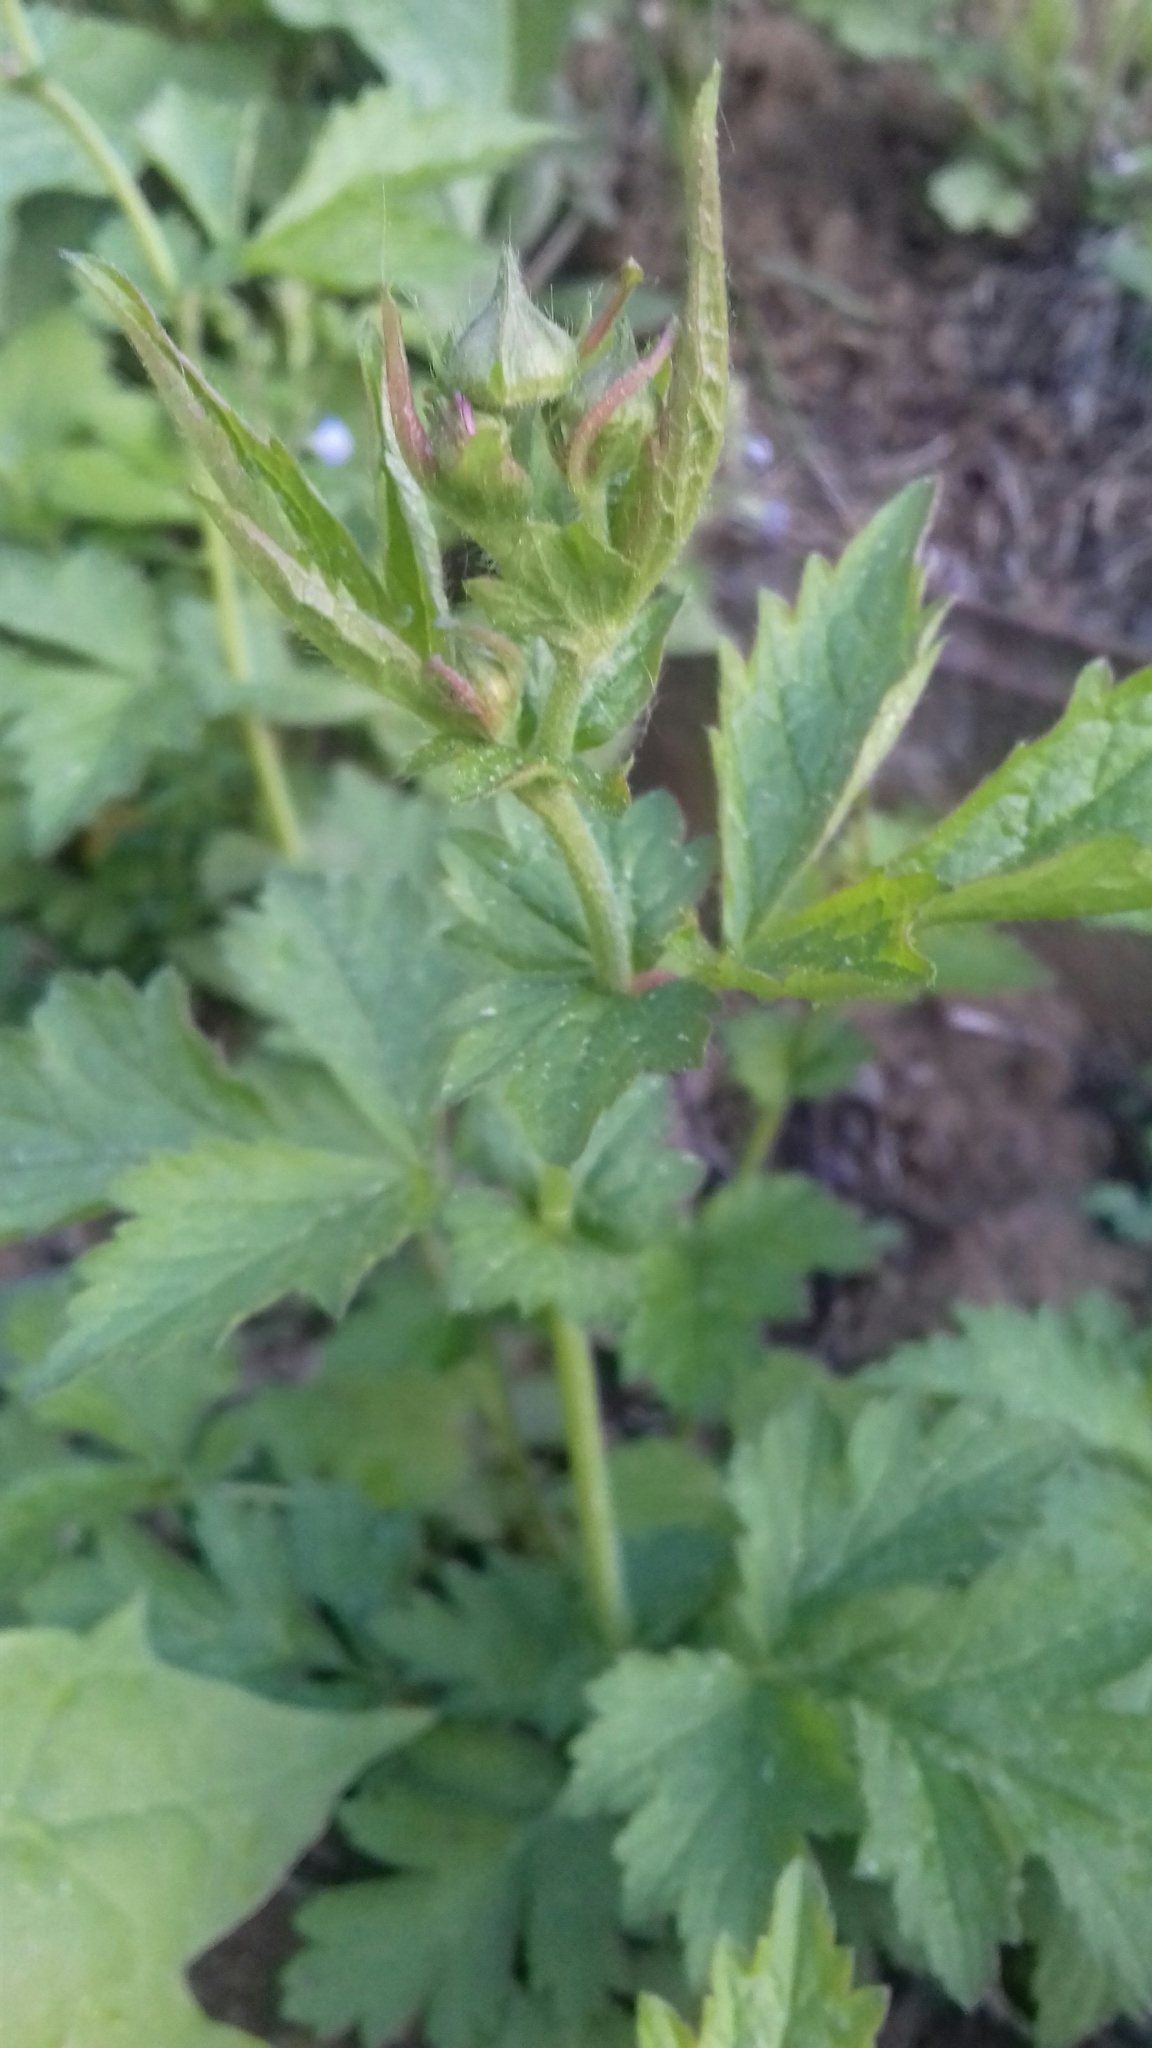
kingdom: Plantae
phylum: Tracheophyta
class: Magnoliopsida
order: Rosales
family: Rosaceae
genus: Geum
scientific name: Geum
